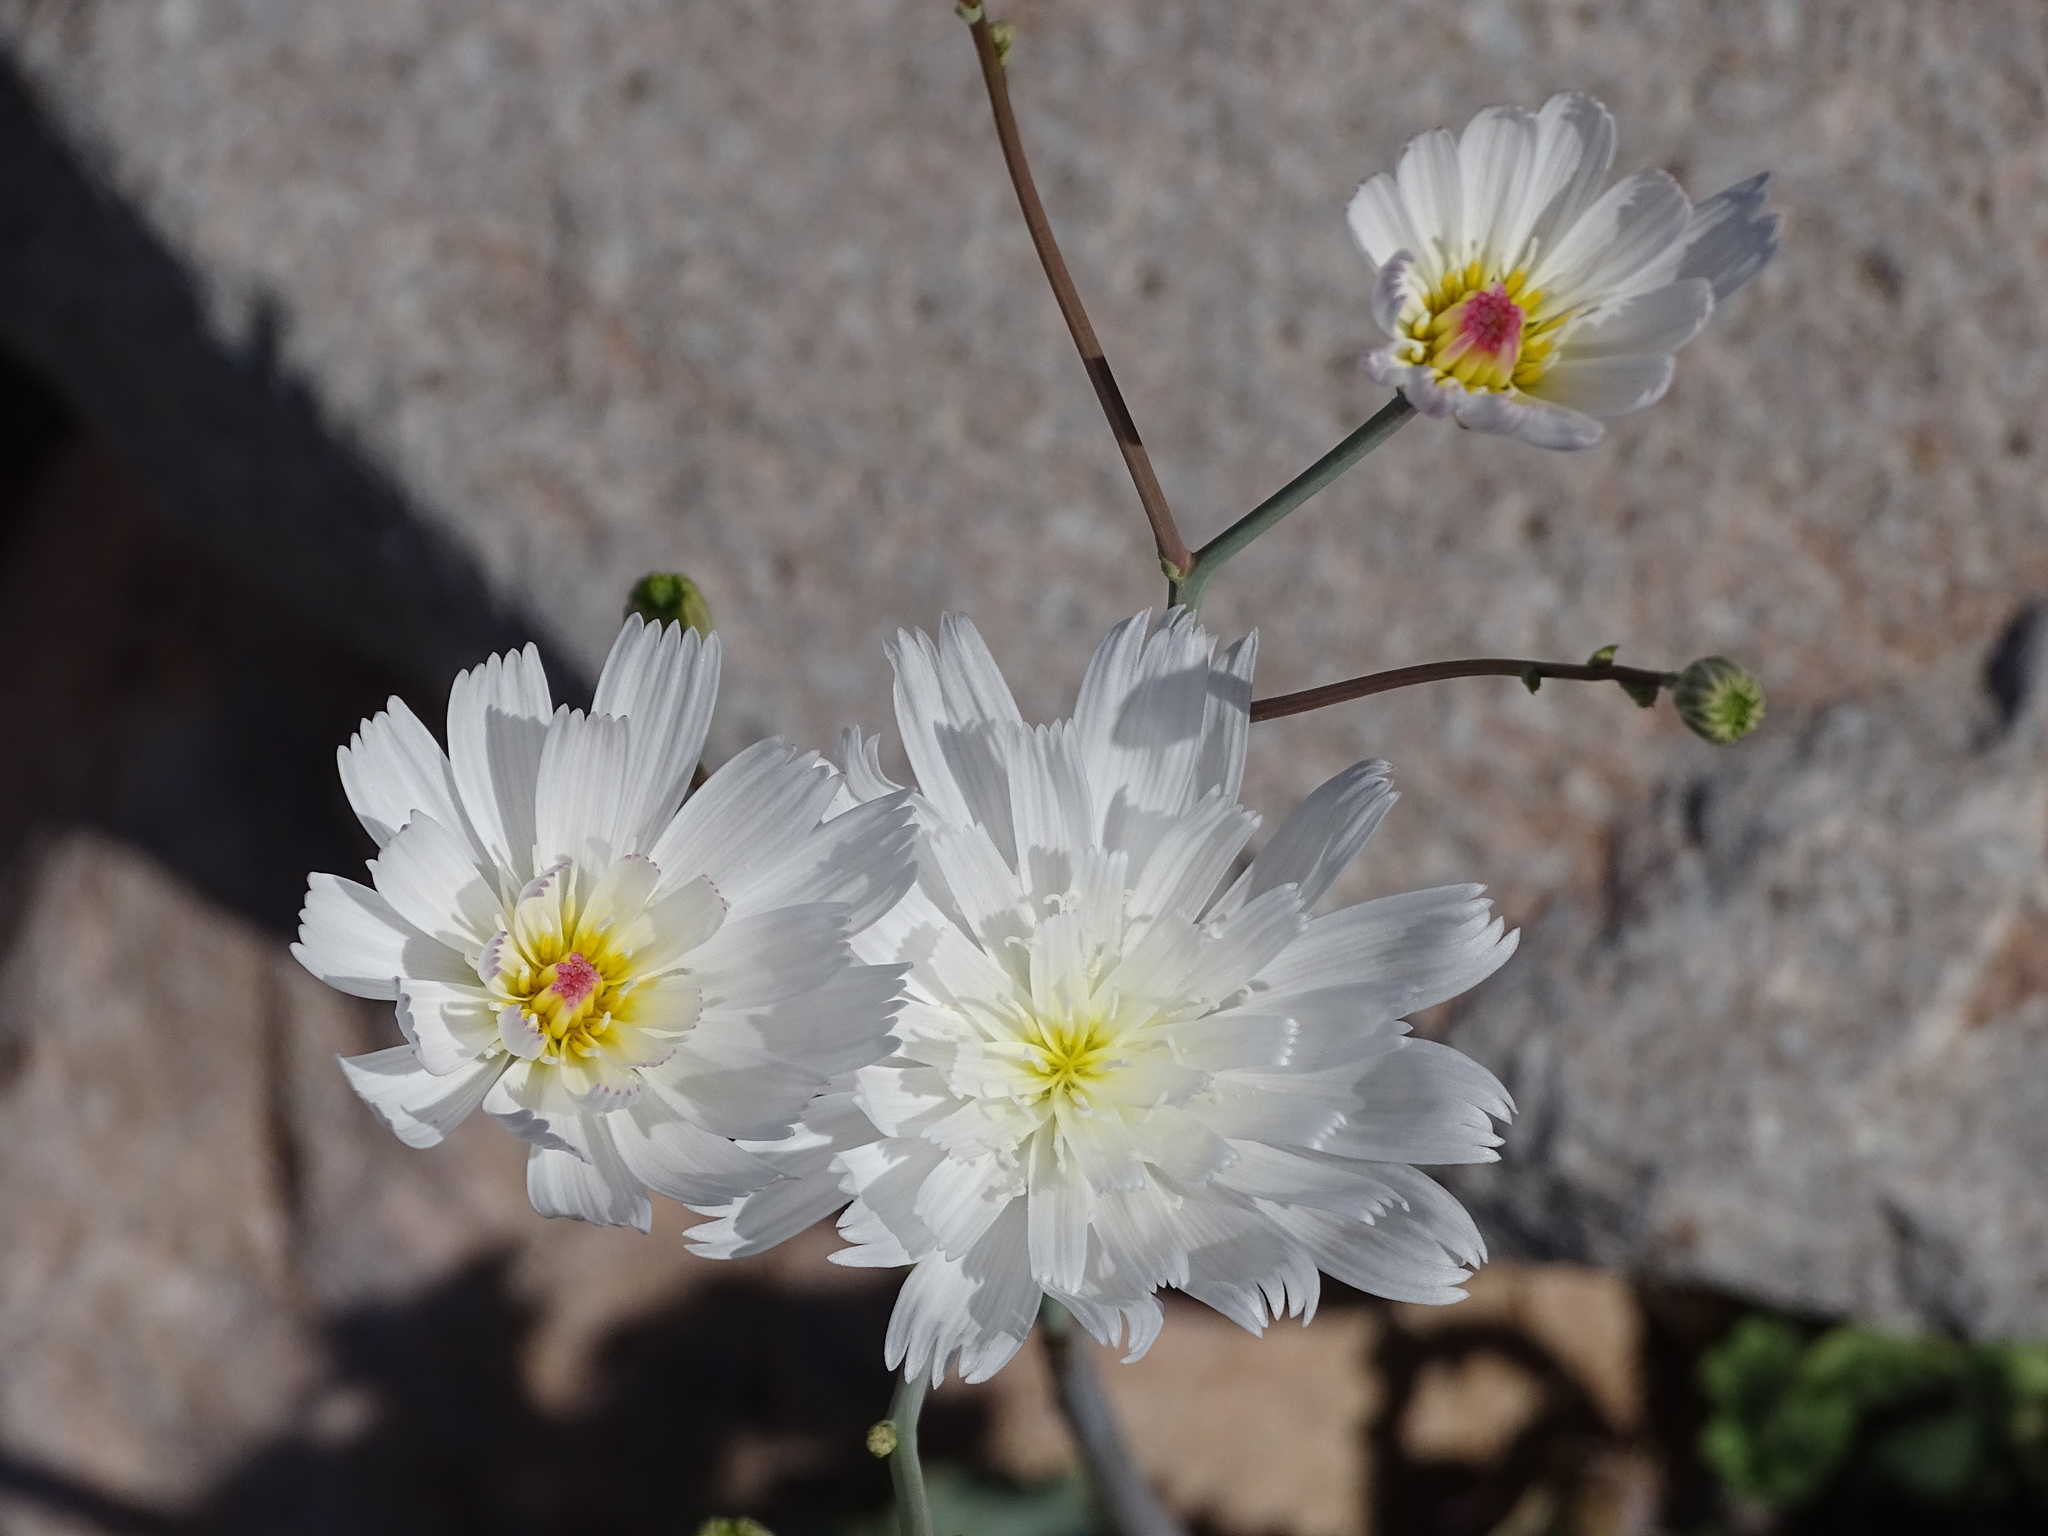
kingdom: Plantae
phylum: Tracheophyta
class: Magnoliopsida
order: Asterales
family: Asteraceae
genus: Atrichoseris
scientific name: Atrichoseris platyphylla
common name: Tobaccoweed
